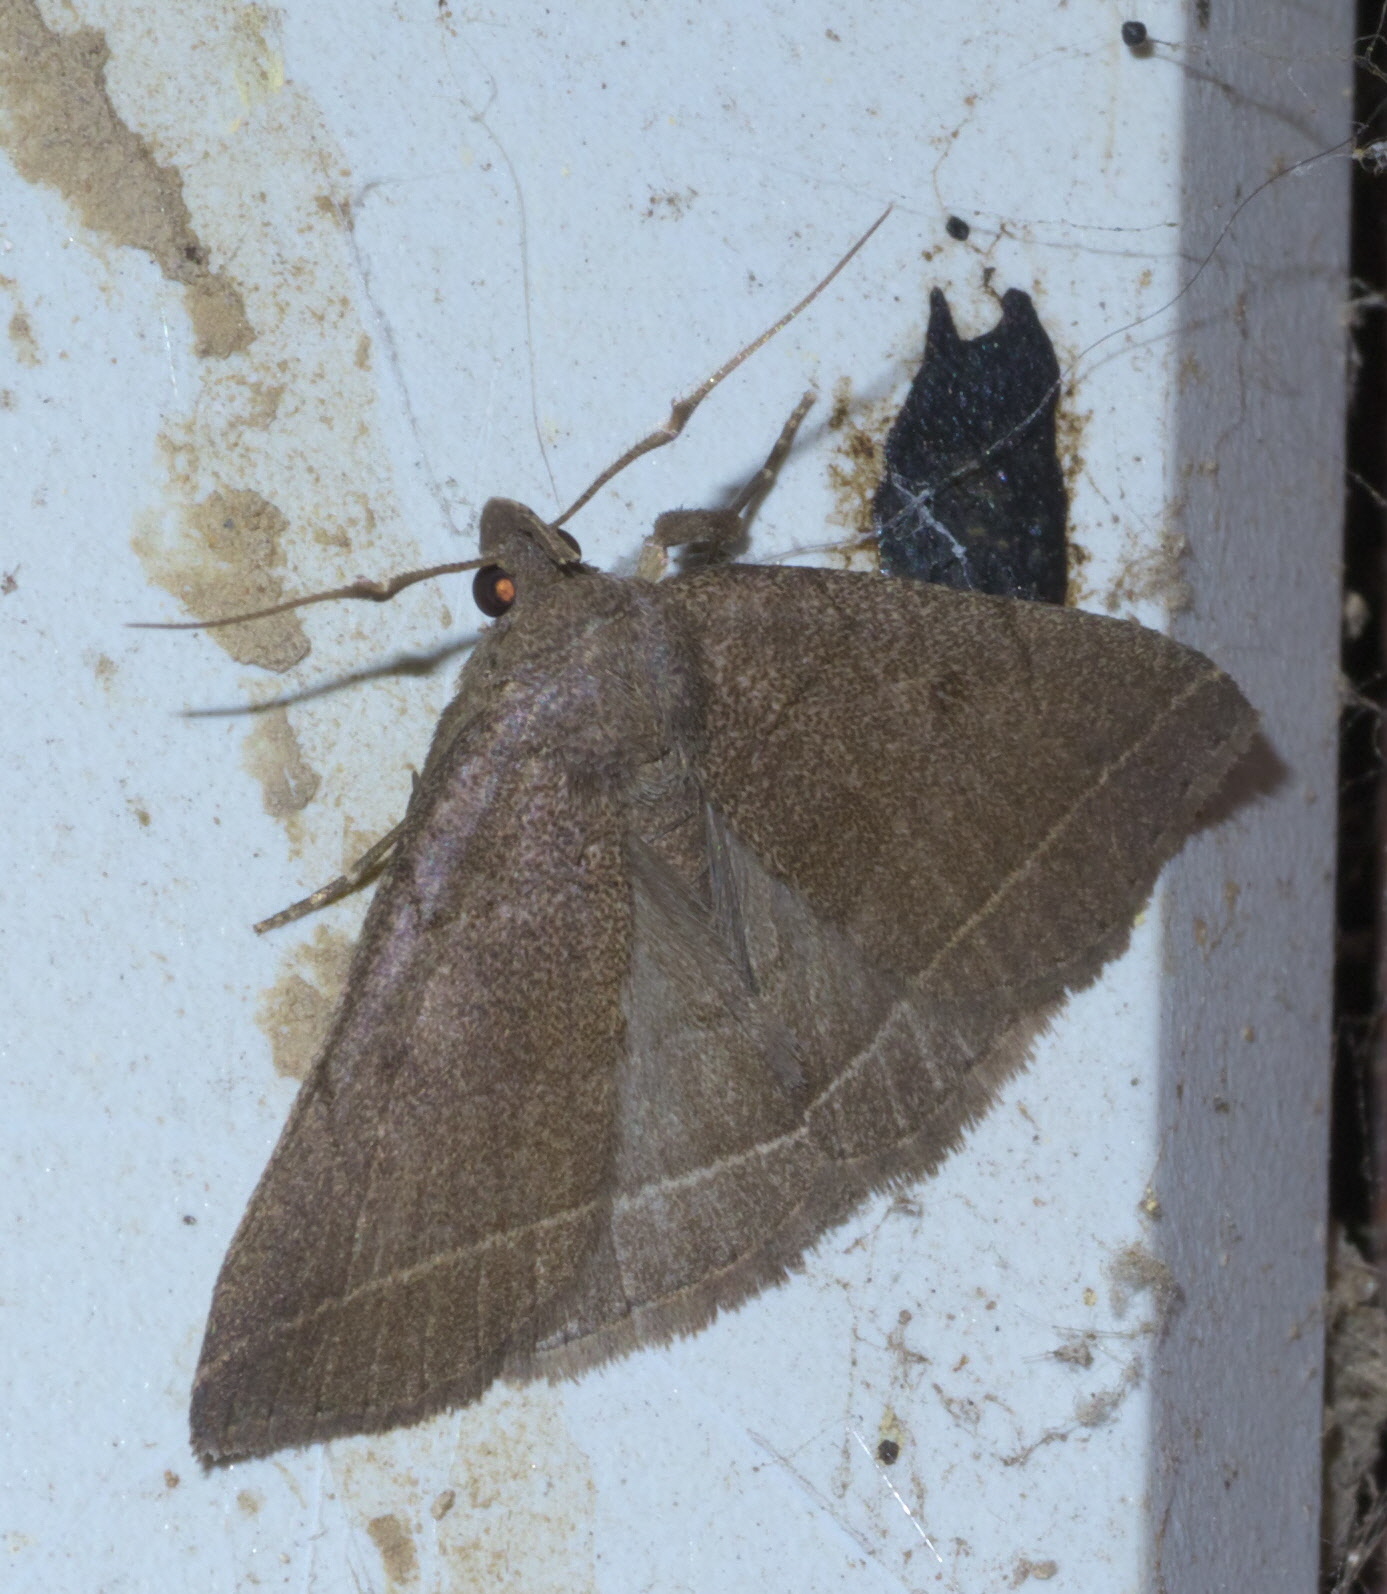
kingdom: Animalia
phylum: Arthropoda
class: Insecta
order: Lepidoptera
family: Erebidae
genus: Zanclognatha
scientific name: Zanclognatha obscuripennis
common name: Dark fan-foot
